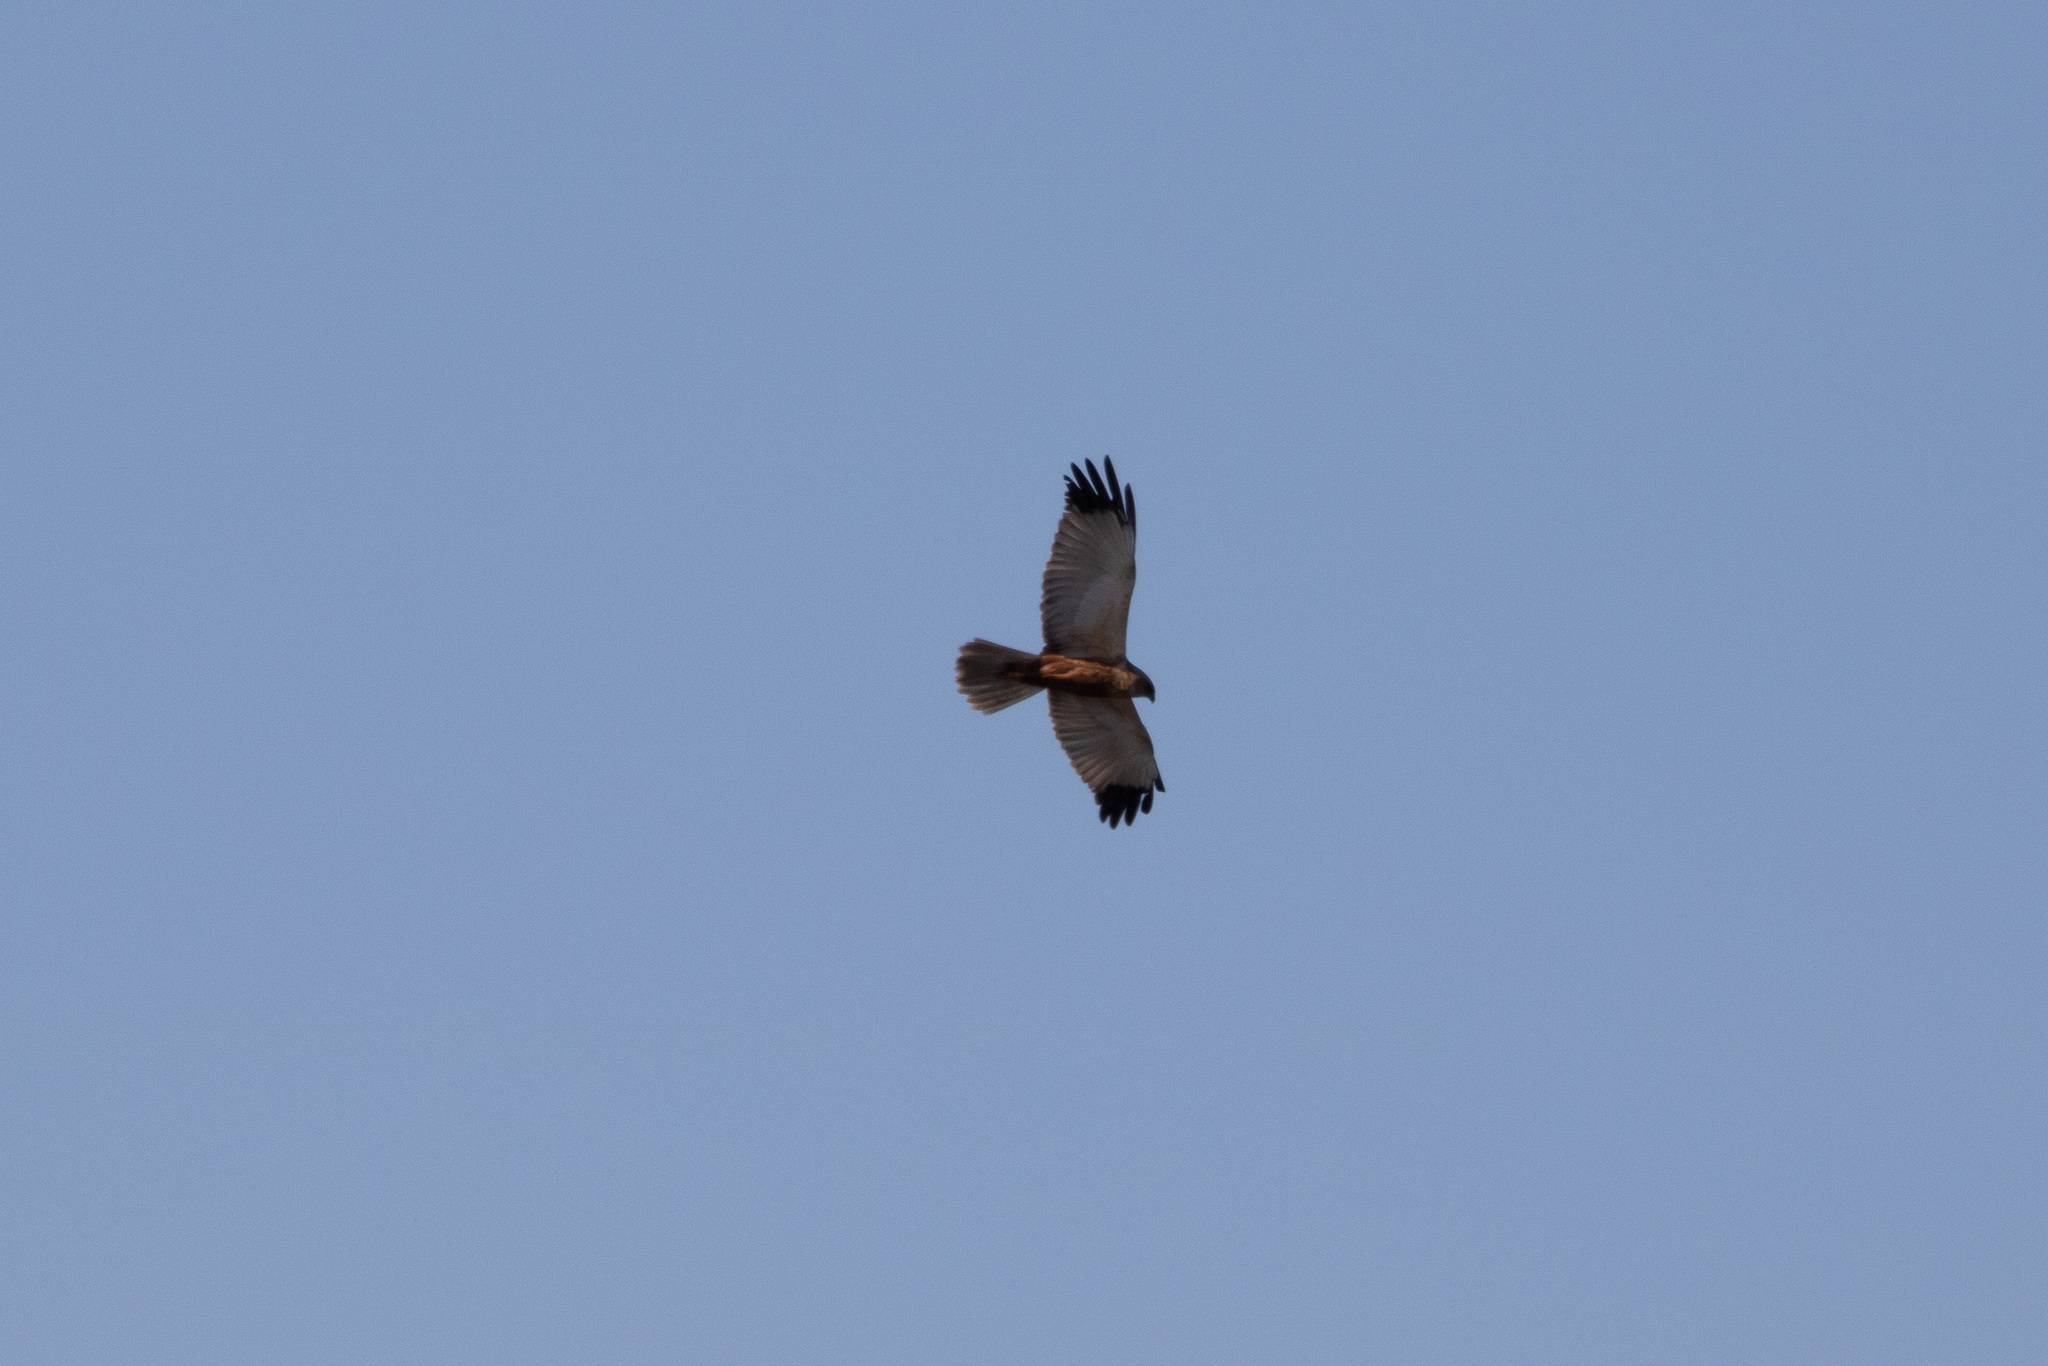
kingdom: Animalia
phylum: Chordata
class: Aves
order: Accipitriformes
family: Accipitridae
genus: Circus
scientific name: Circus aeruginosus
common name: Western marsh harrier
